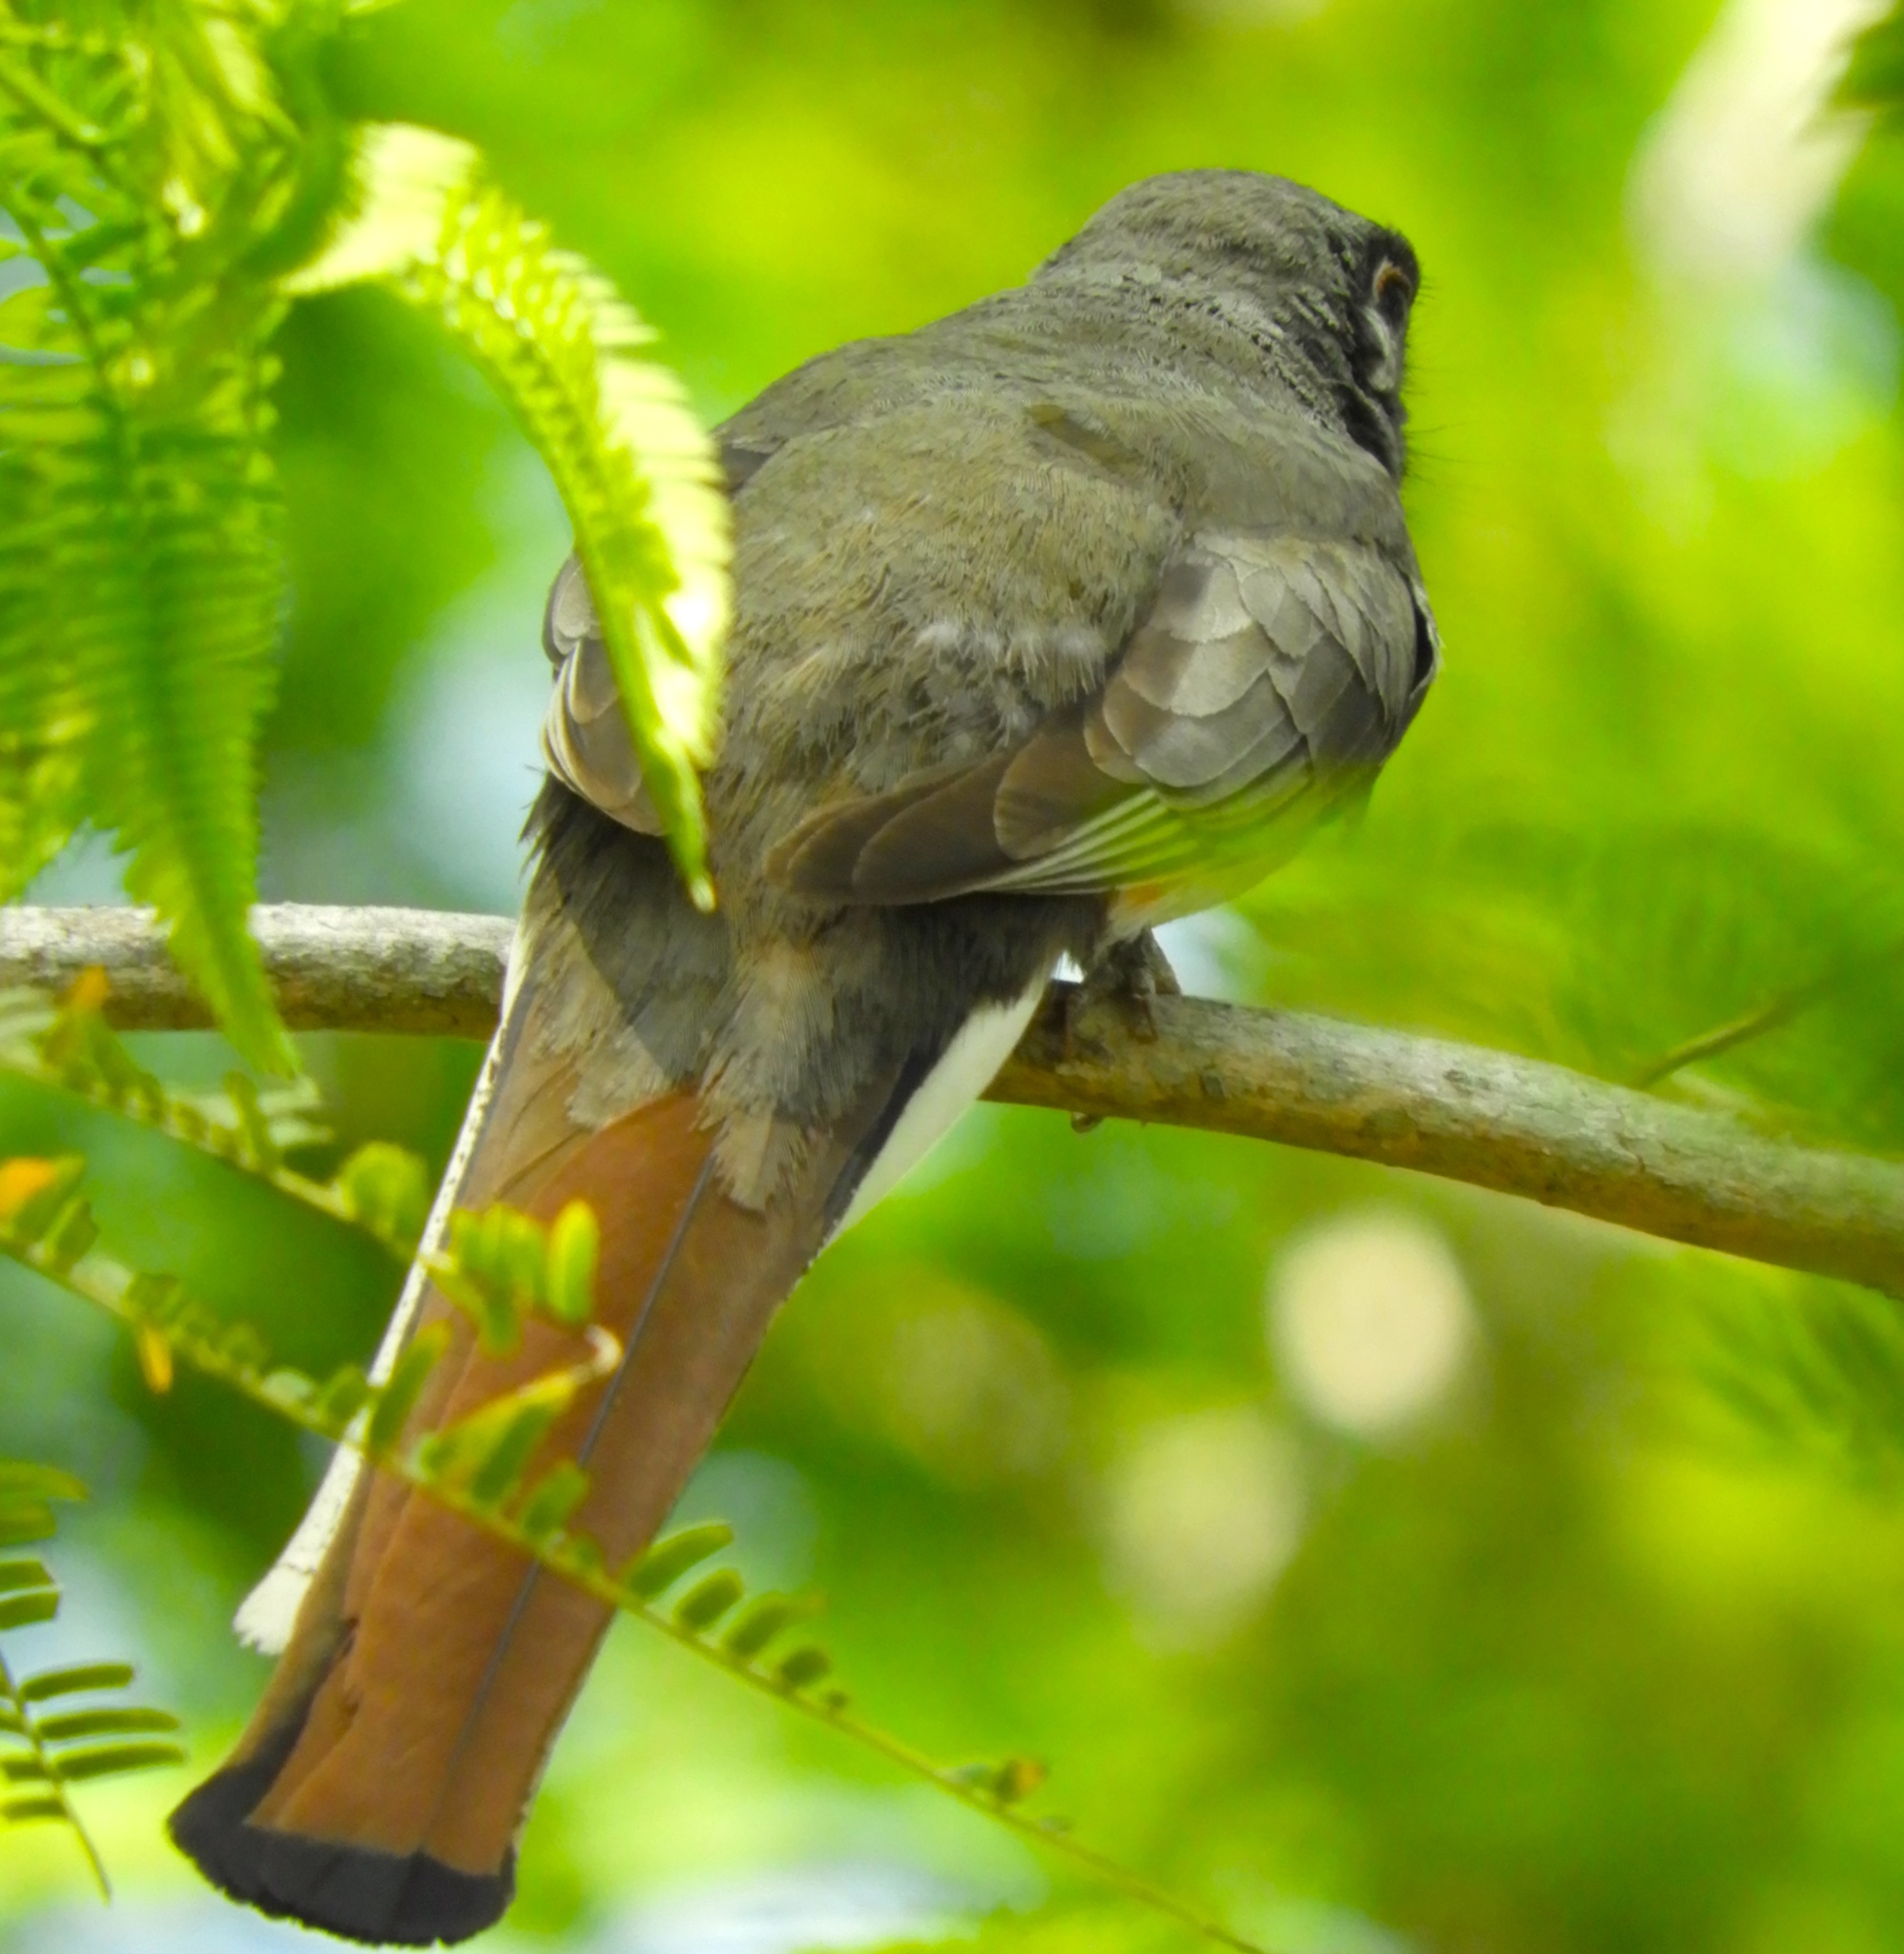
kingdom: Animalia
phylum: Chordata
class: Aves
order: Trogoniformes
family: Trogonidae
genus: Trogon
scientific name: Trogon elegans
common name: Elegant trogon
